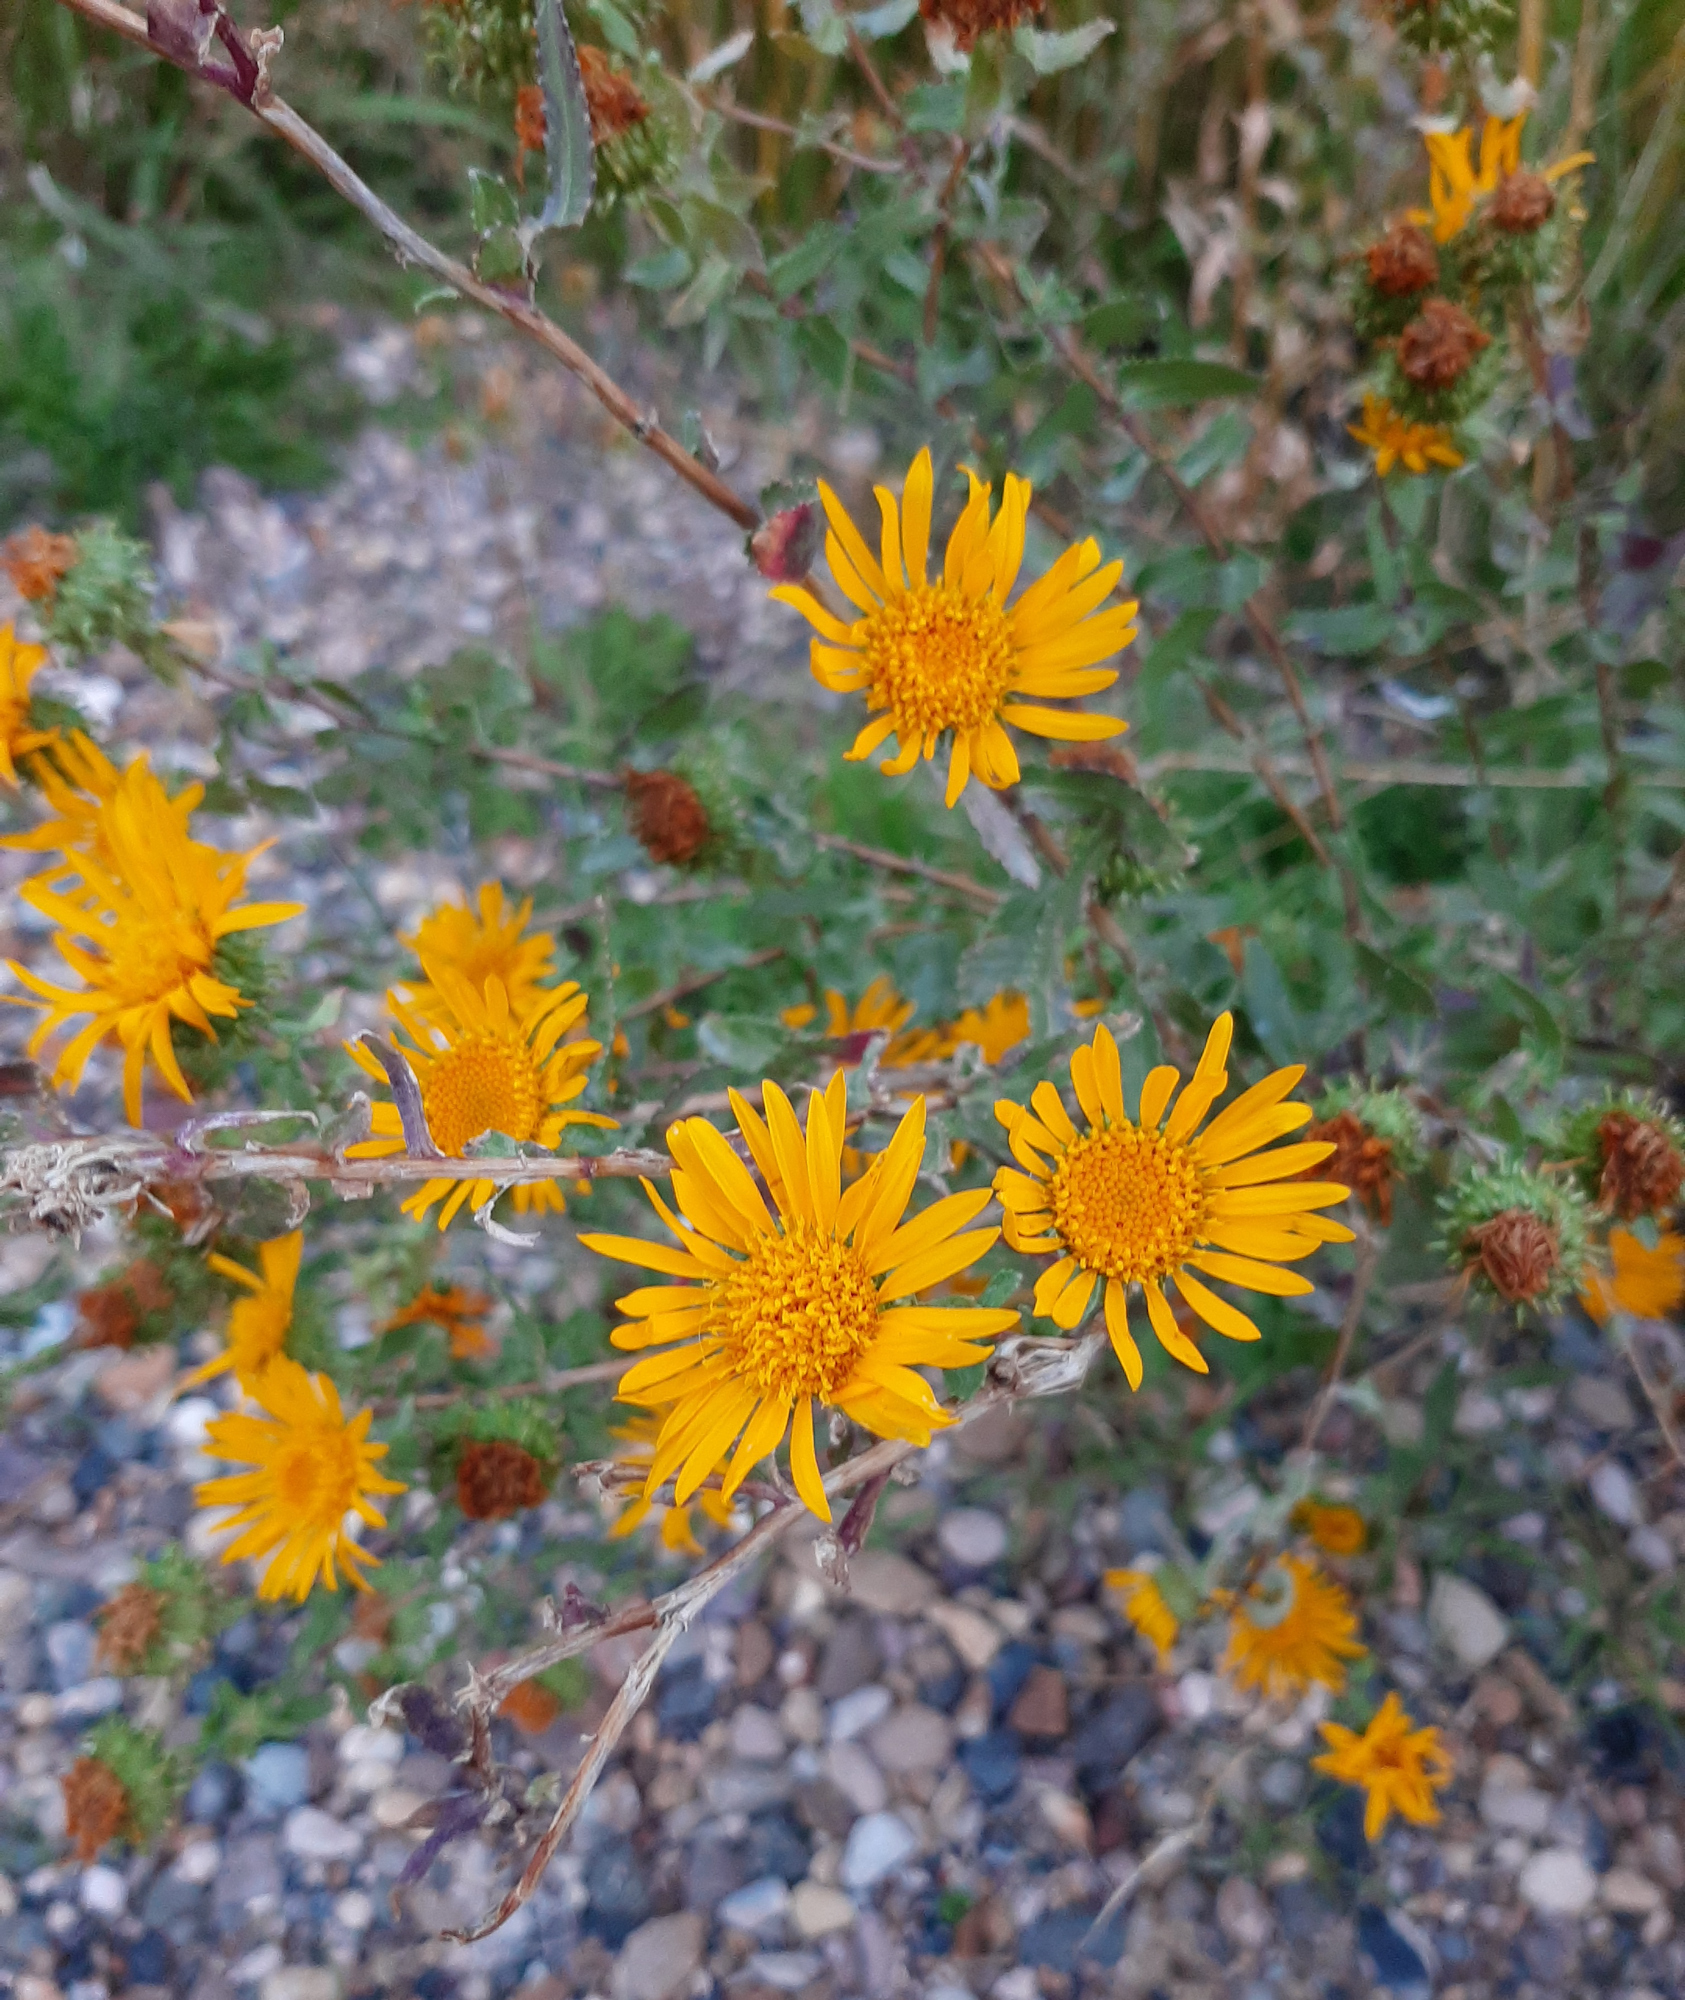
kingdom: Plantae
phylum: Tracheophyta
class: Magnoliopsida
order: Asterales
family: Asteraceae
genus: Grindelia
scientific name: Grindelia squarrosa
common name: Curly-cup gumweed
